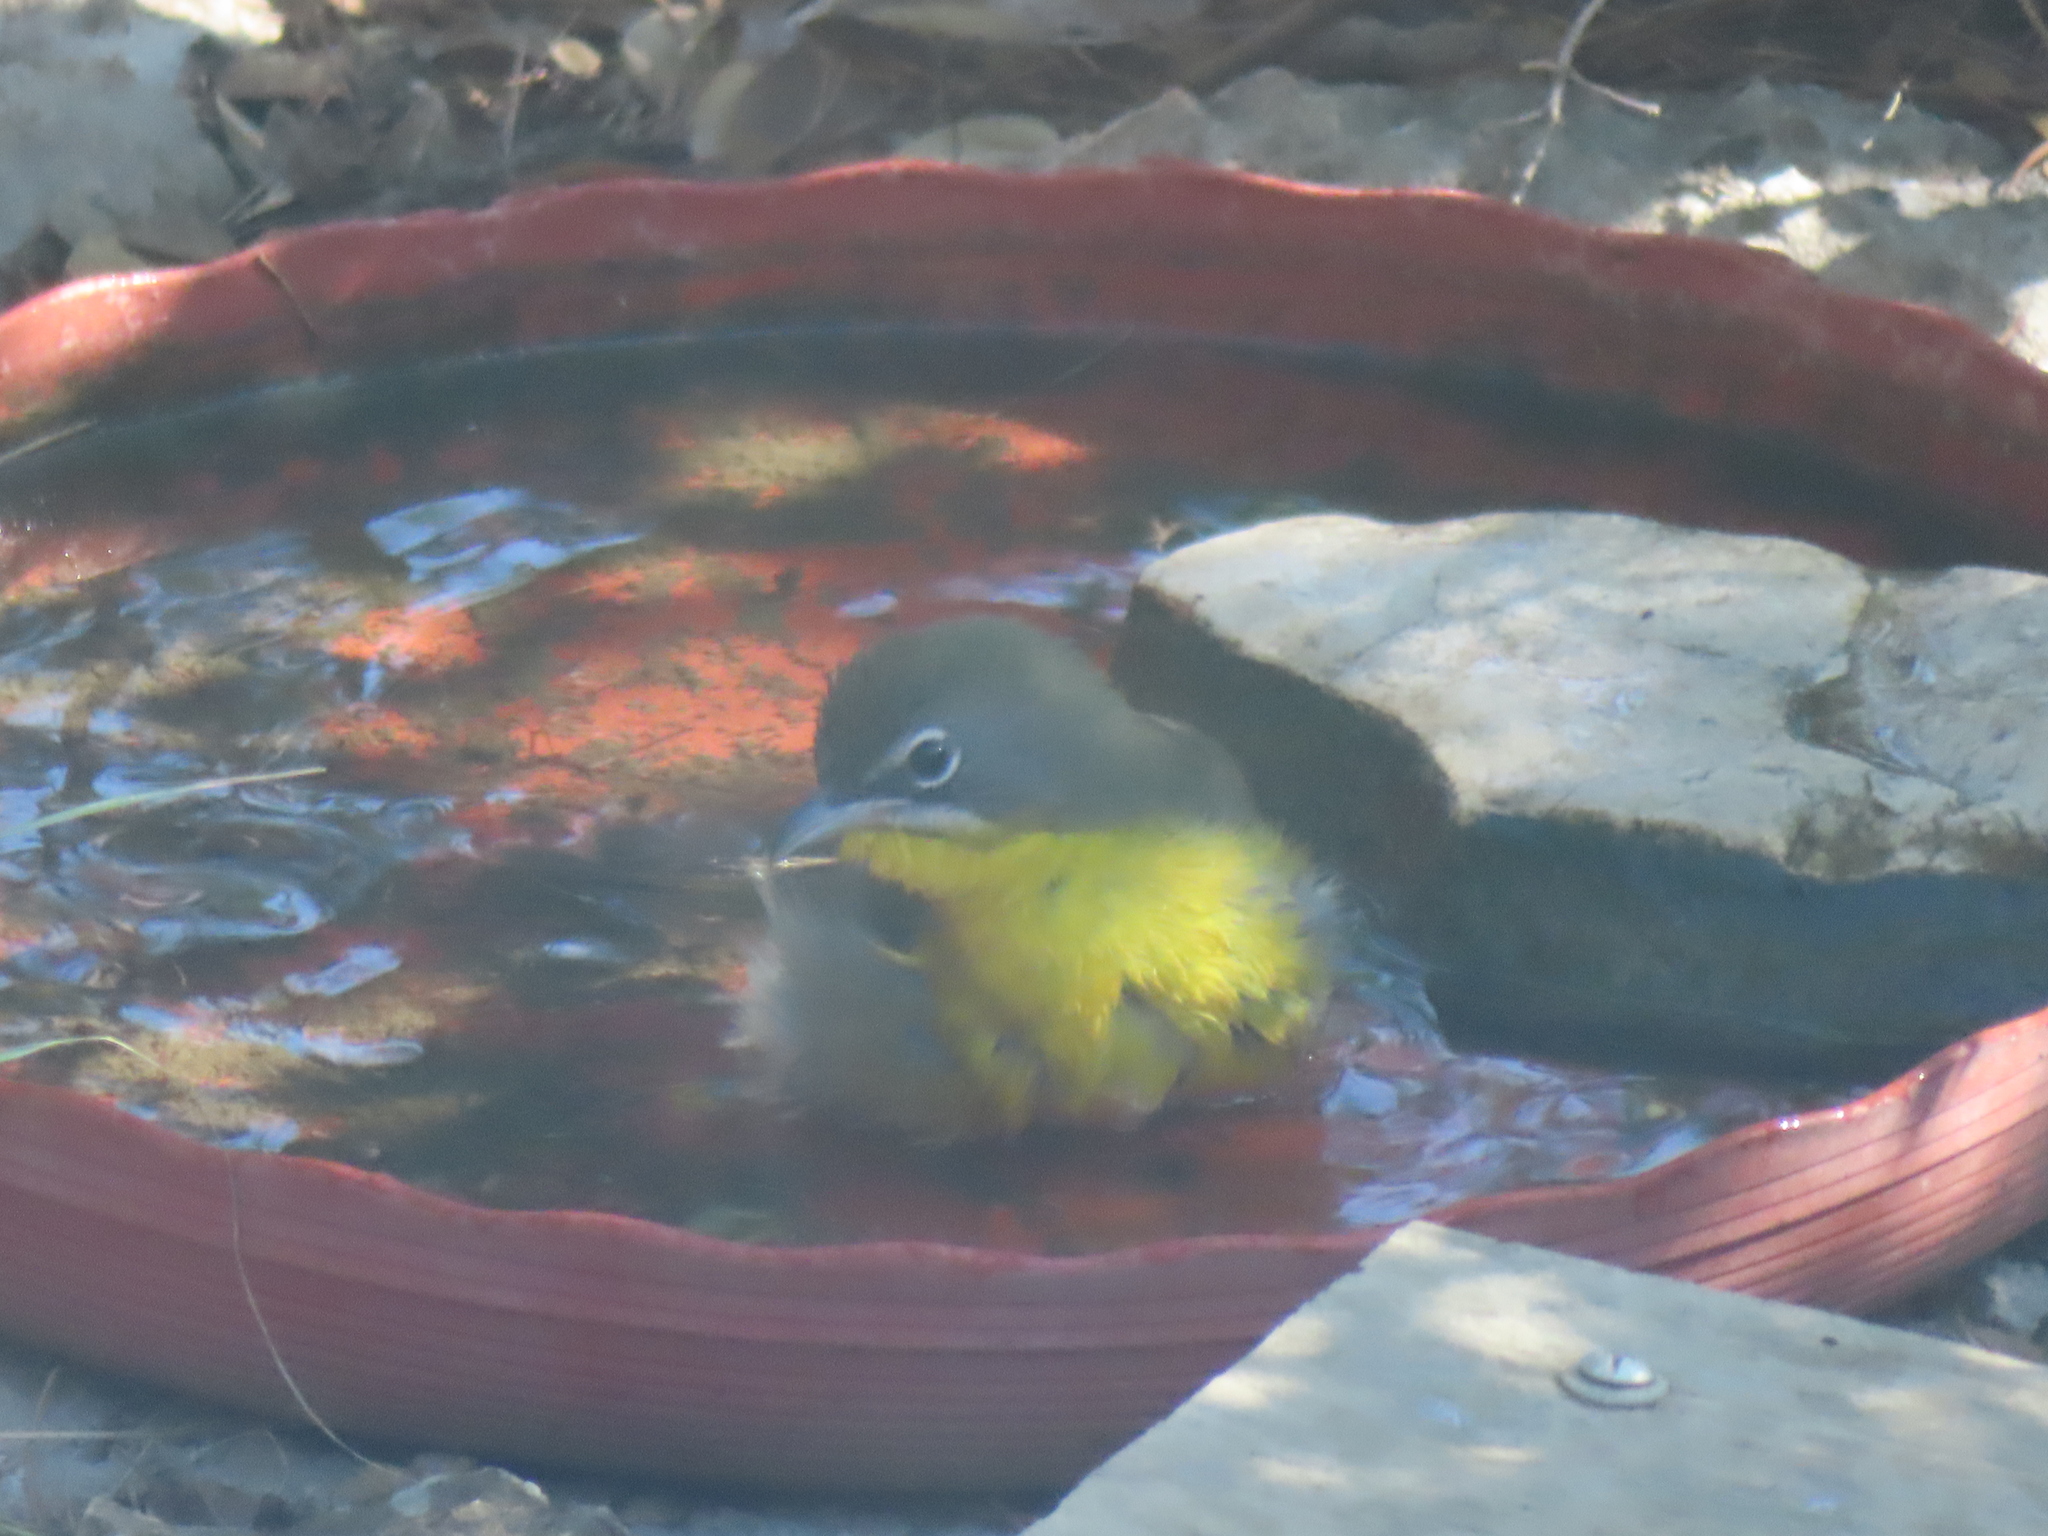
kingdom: Animalia
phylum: Chordata
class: Aves
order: Passeriformes
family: Parulidae
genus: Icteria
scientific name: Icteria virens
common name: Yellow-breasted chat
